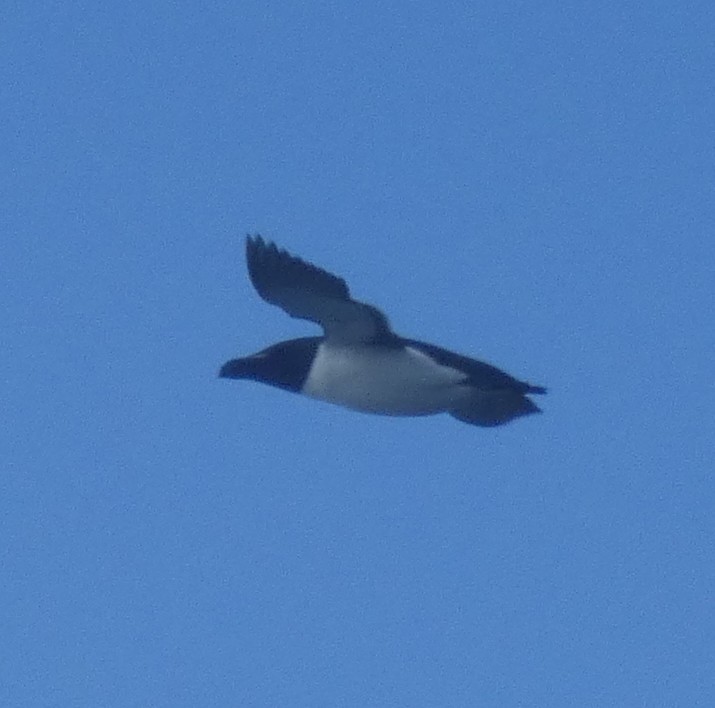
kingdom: Animalia
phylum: Chordata
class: Aves
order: Charadriiformes
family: Alcidae
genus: Alca
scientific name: Alca torda
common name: Razorbill
